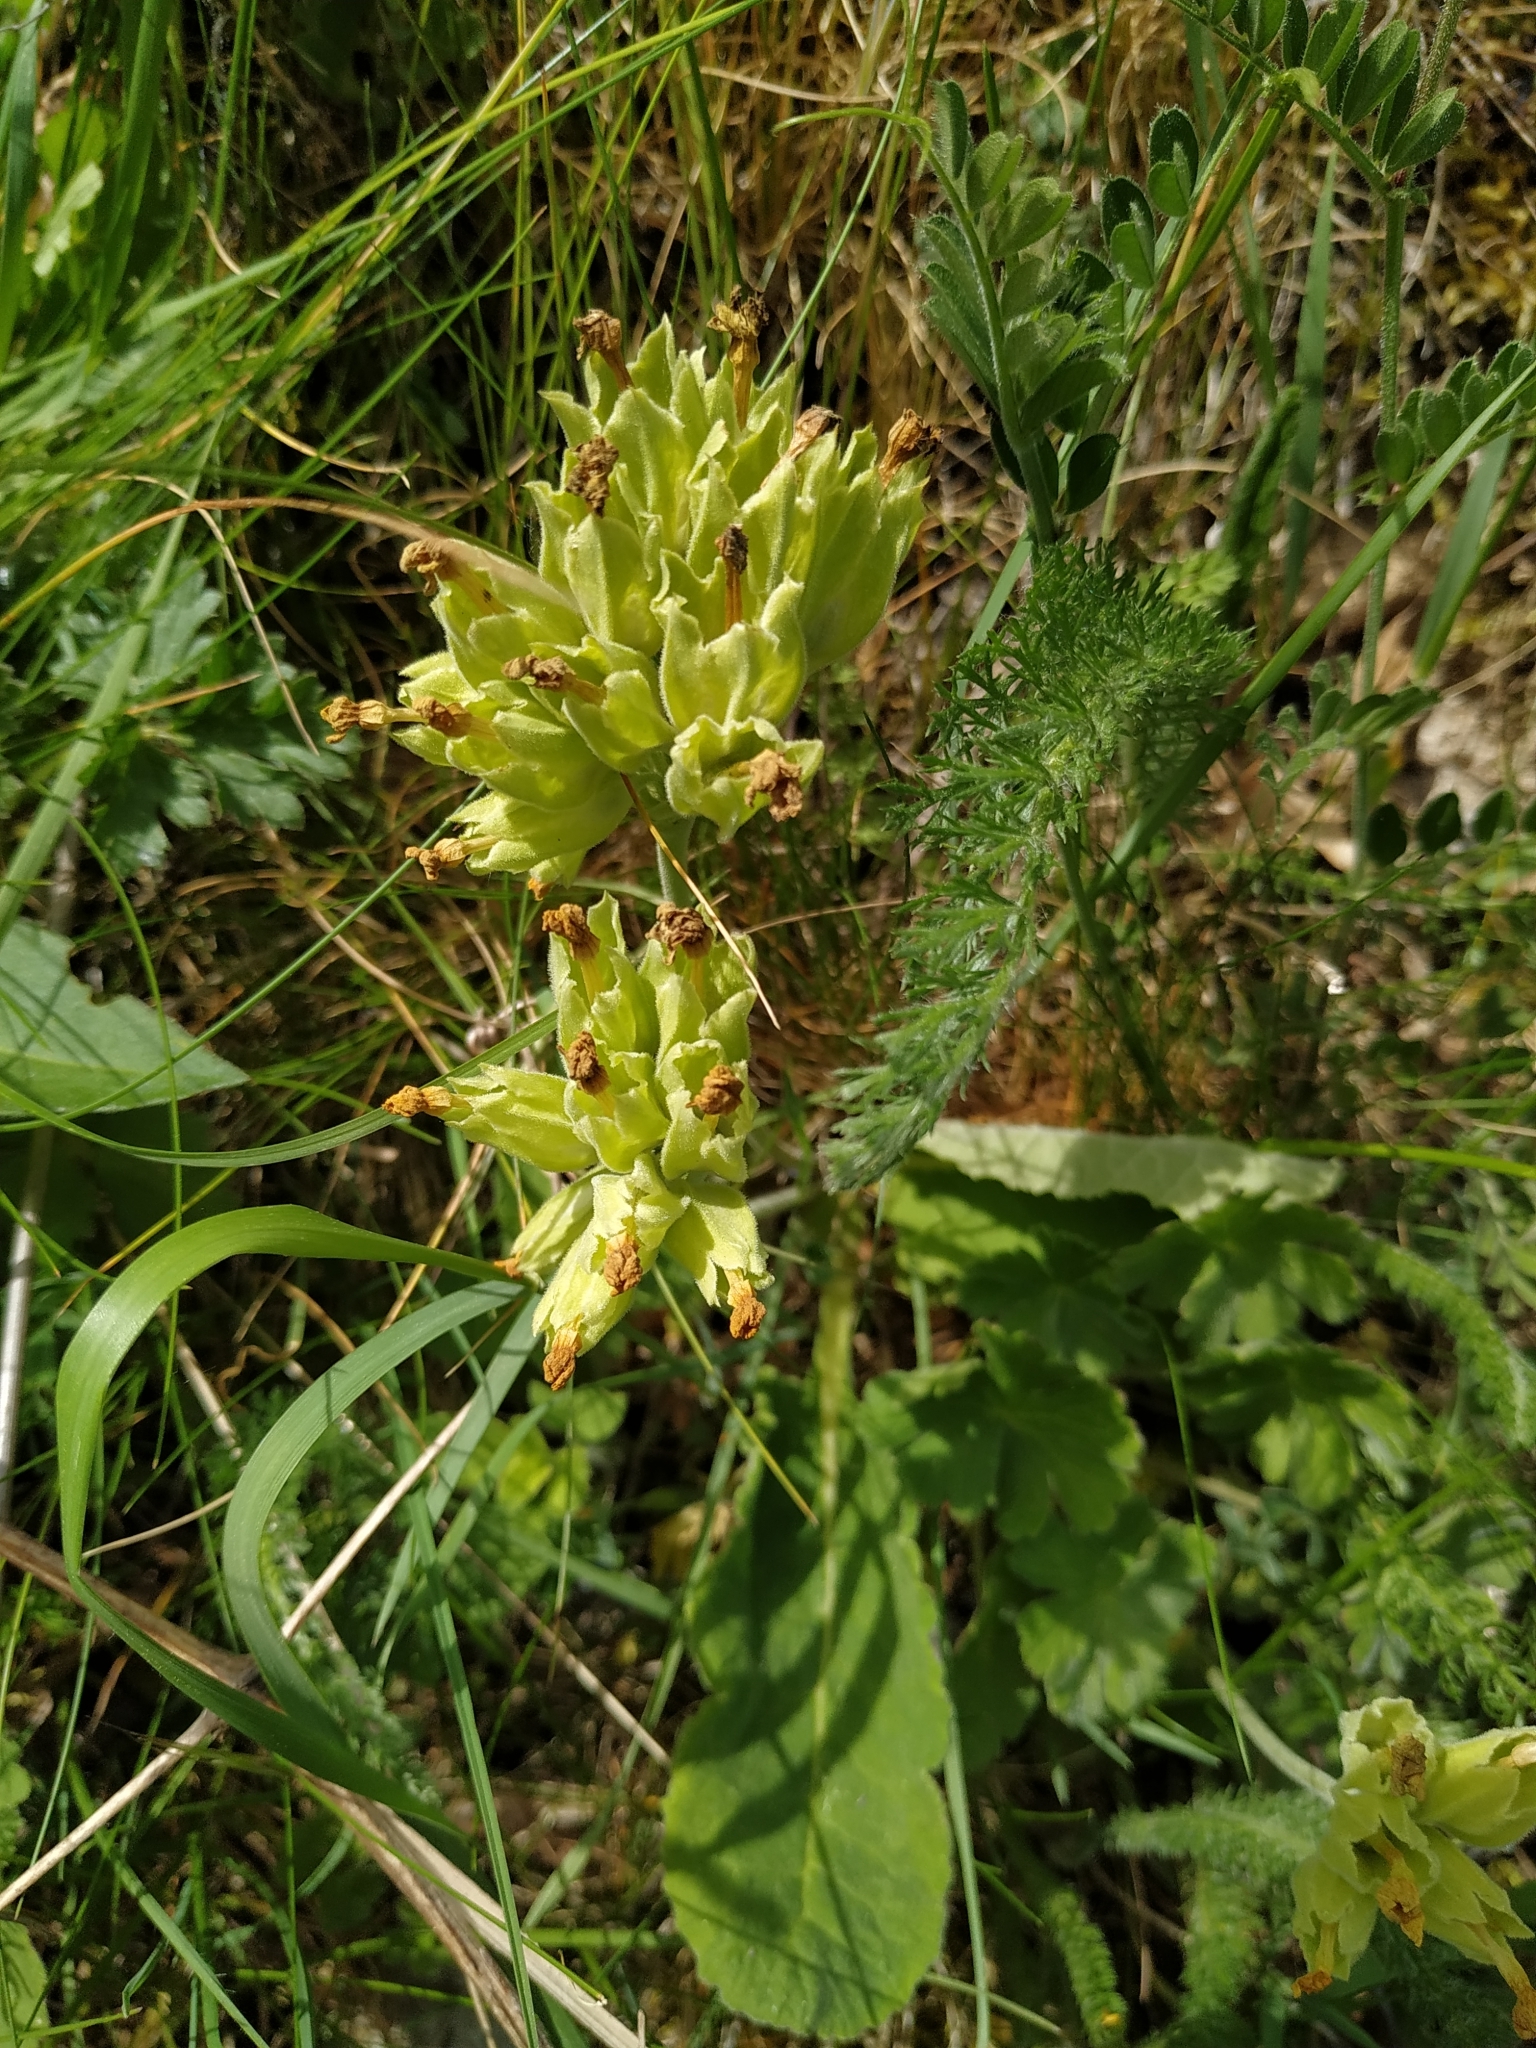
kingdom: Plantae
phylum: Tracheophyta
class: Magnoliopsida
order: Ericales
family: Primulaceae
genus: Primula
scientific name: Primula veris
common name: Cowslip
